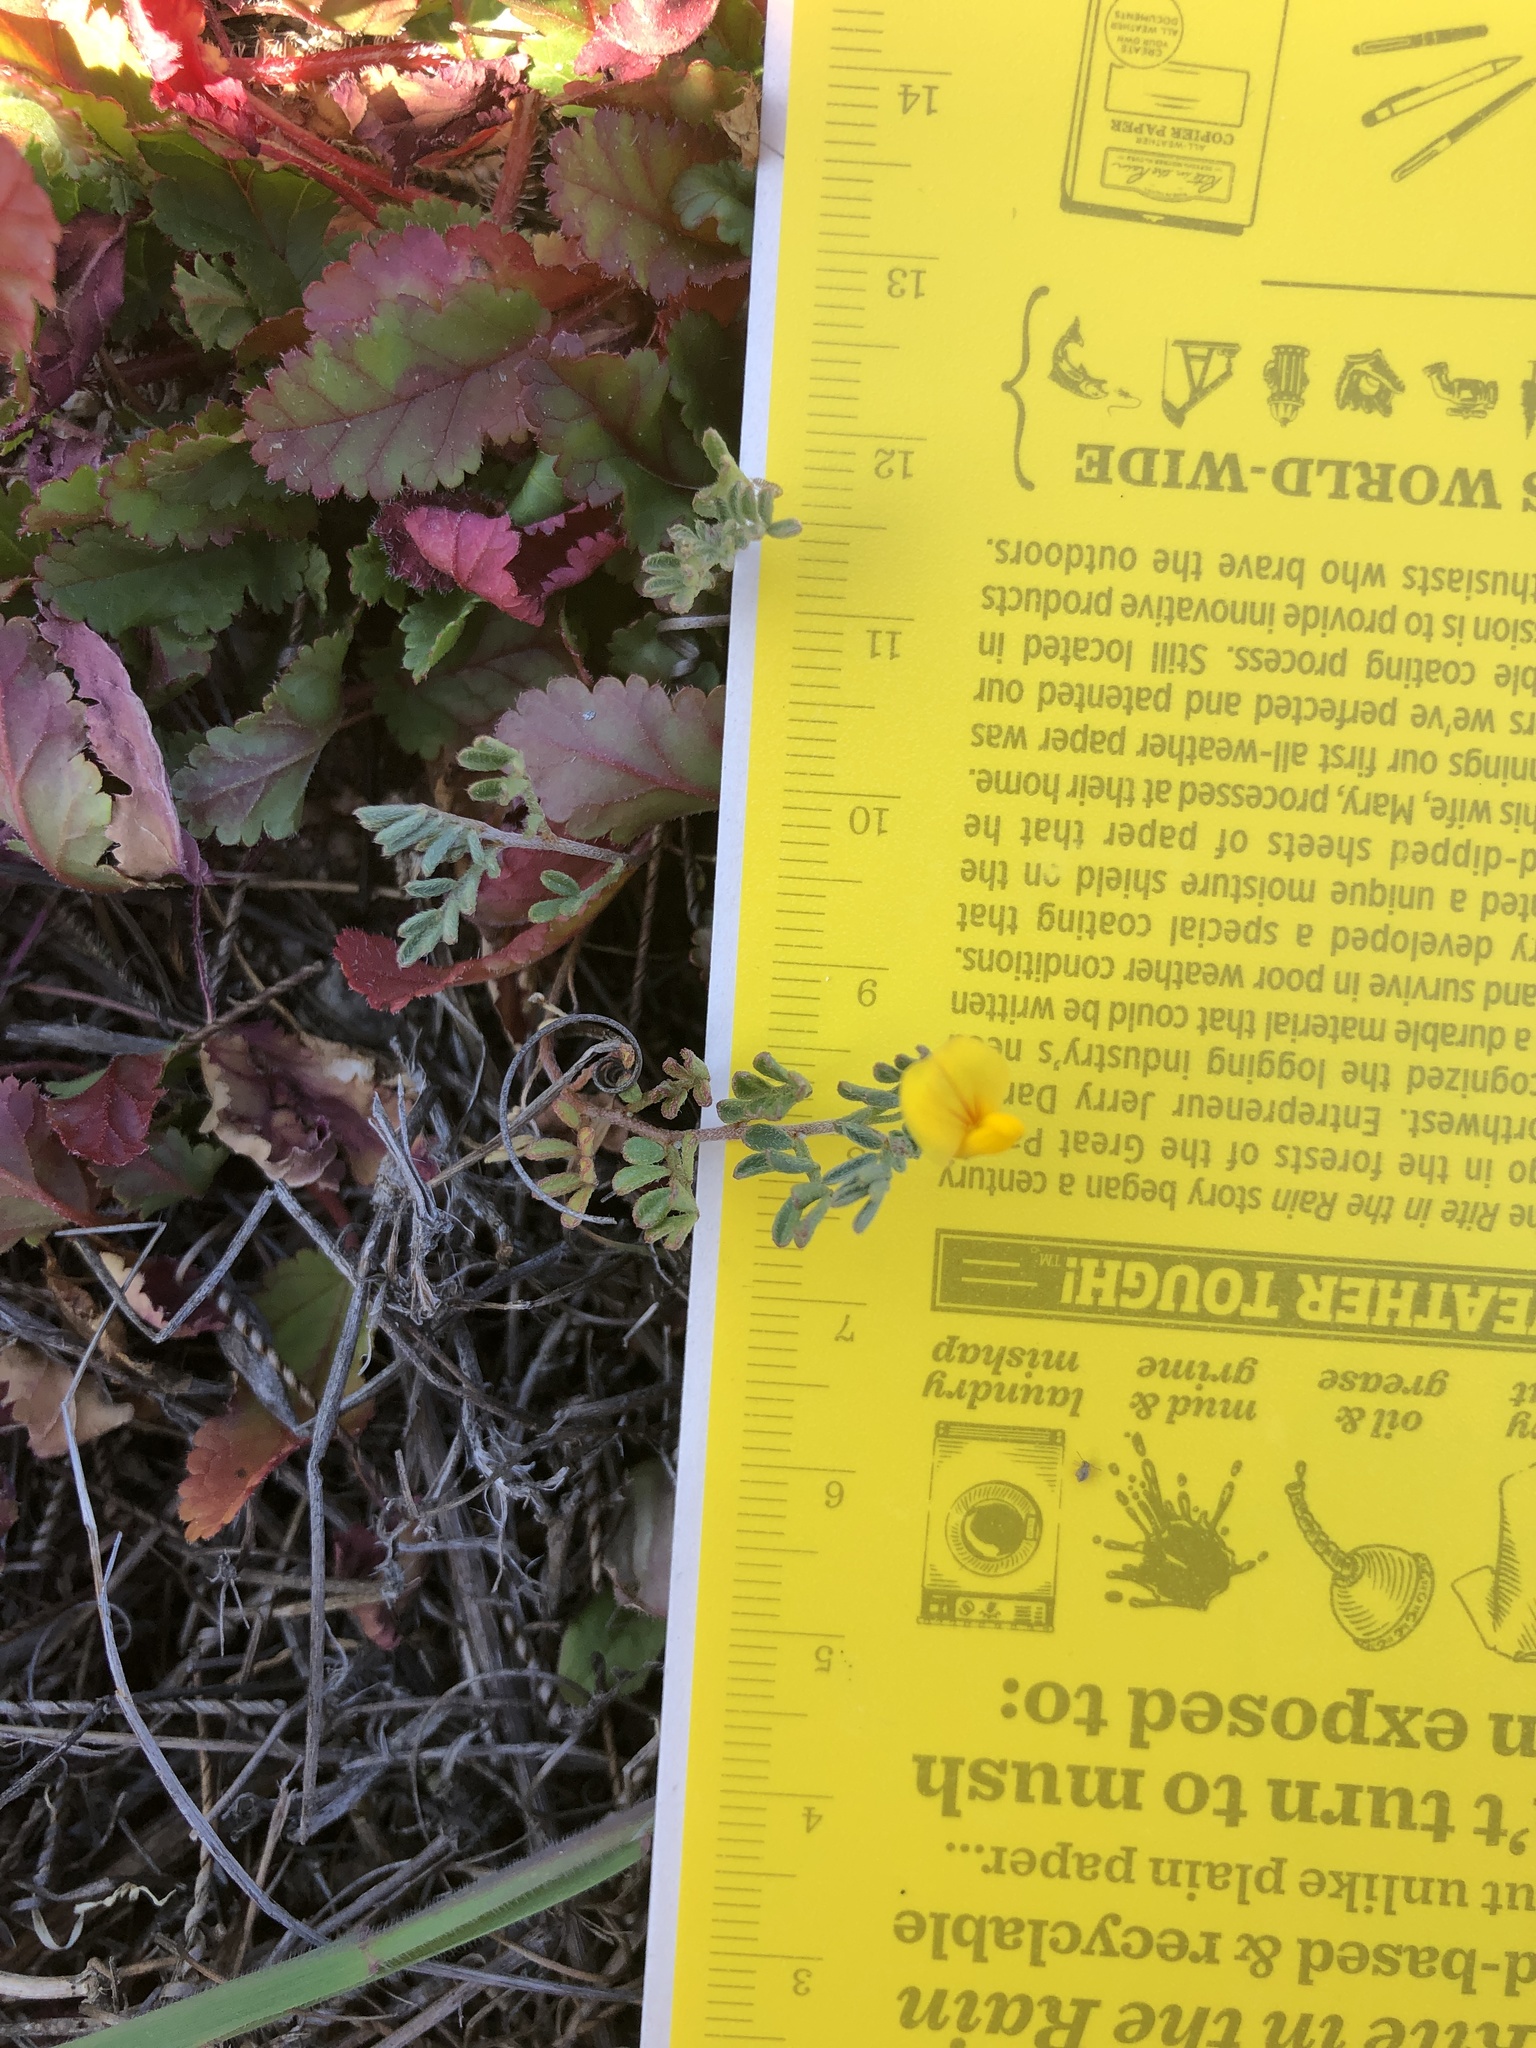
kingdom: Plantae
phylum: Tracheophyta
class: Magnoliopsida
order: Fabales
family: Fabaceae
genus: Acmispon
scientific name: Acmispon strigosus
